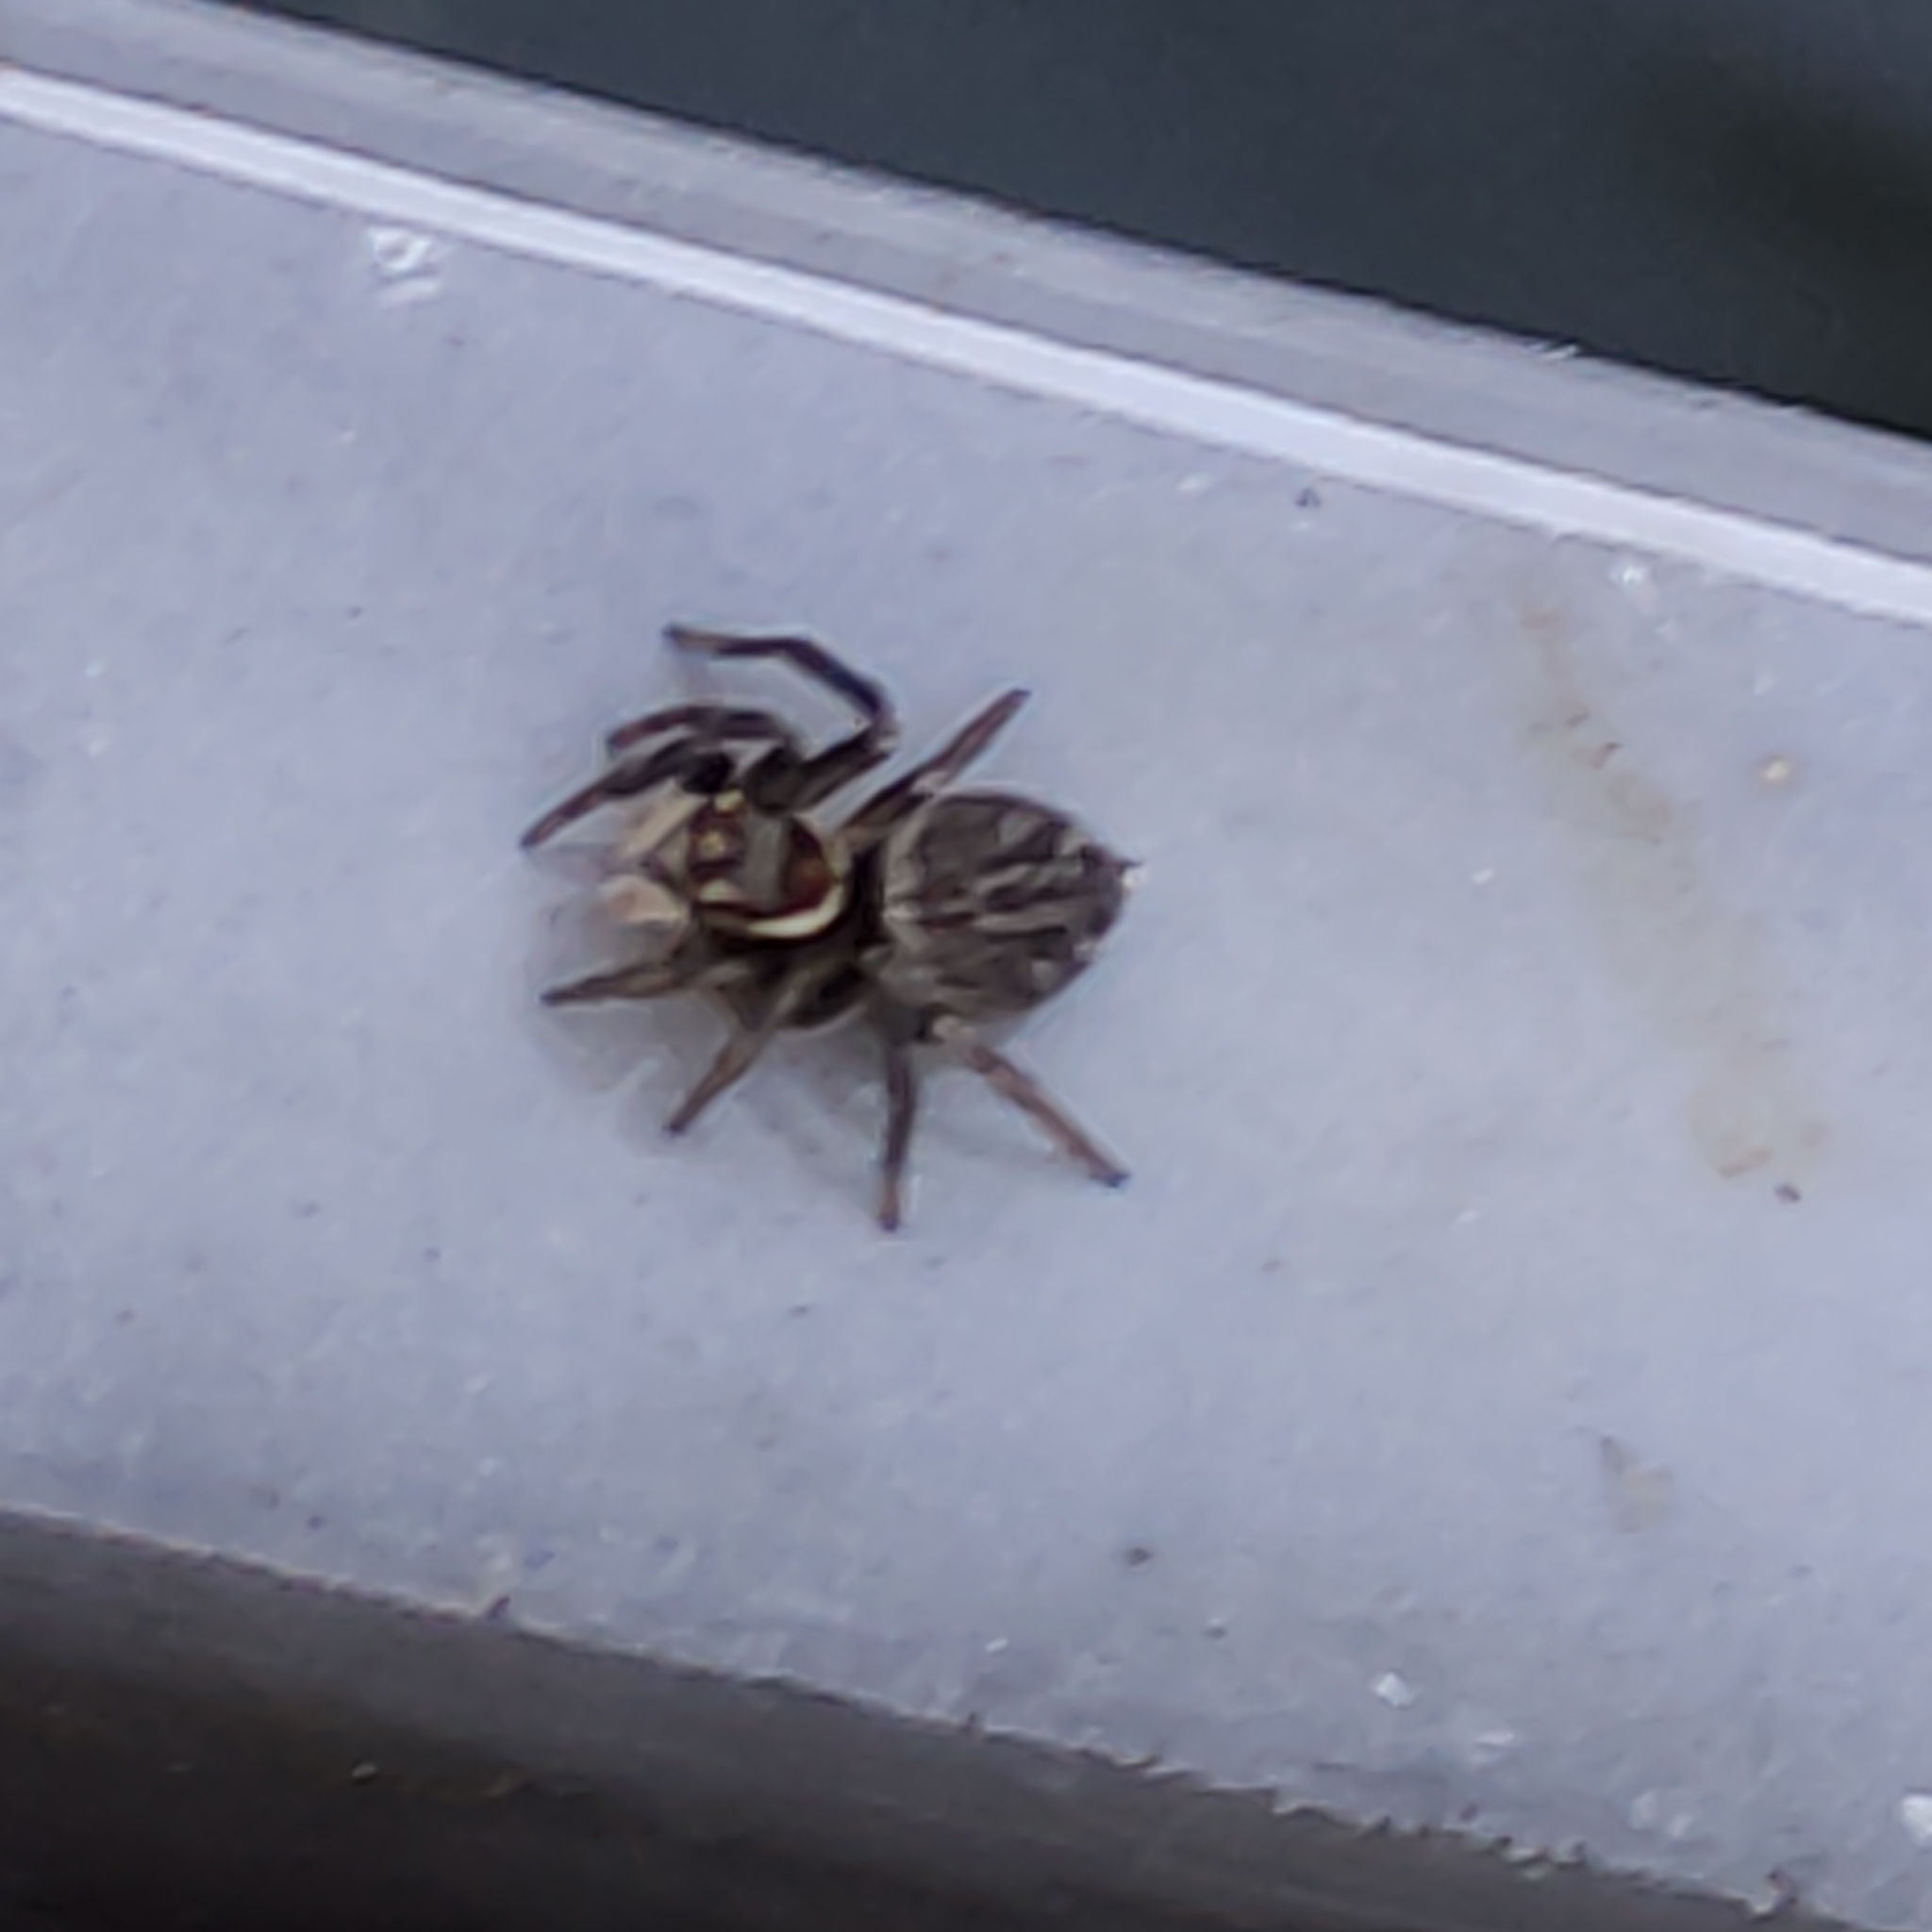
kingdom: Animalia
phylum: Arthropoda
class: Arachnida
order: Araneae
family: Salticidae
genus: Maratus
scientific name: Maratus griseus
